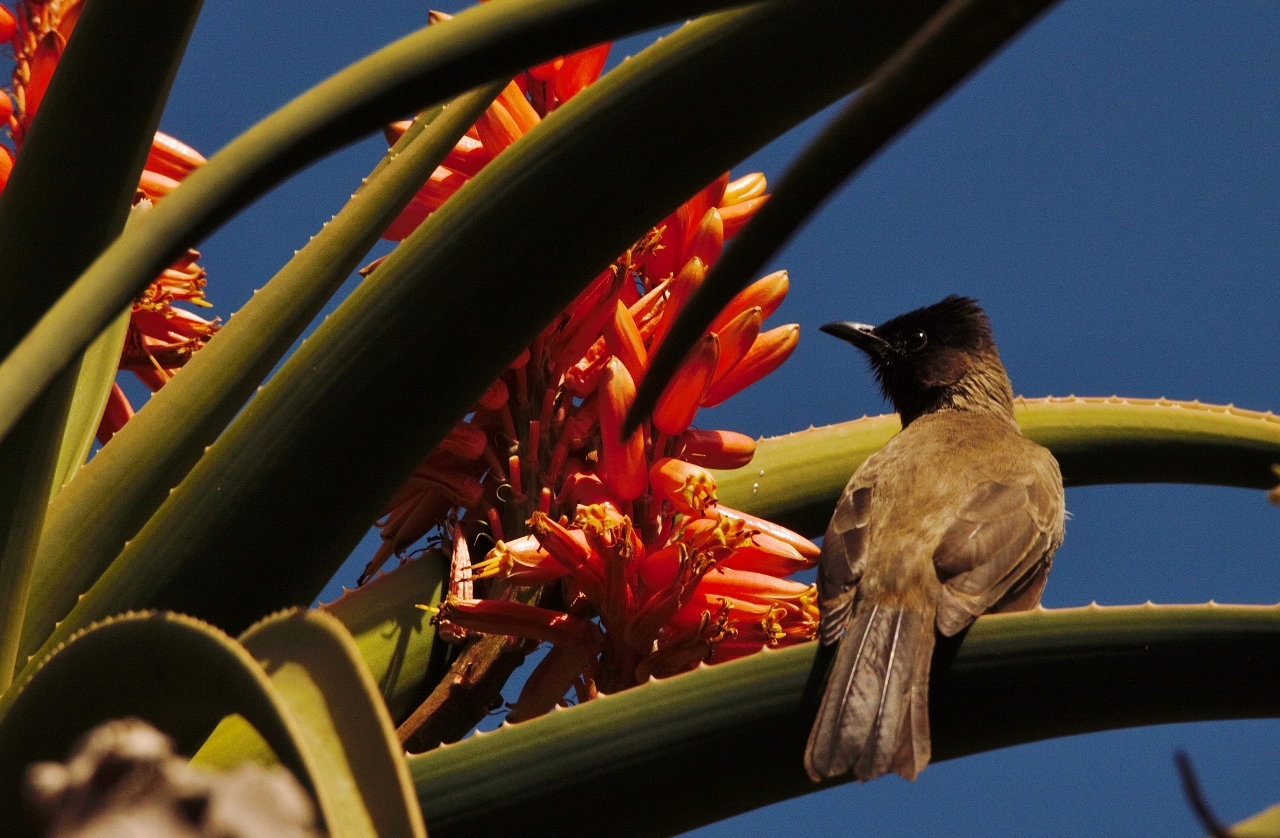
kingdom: Animalia
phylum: Chordata
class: Aves
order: Passeriformes
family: Pycnonotidae
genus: Pycnonotus
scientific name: Pycnonotus barbatus
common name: Common bulbul
